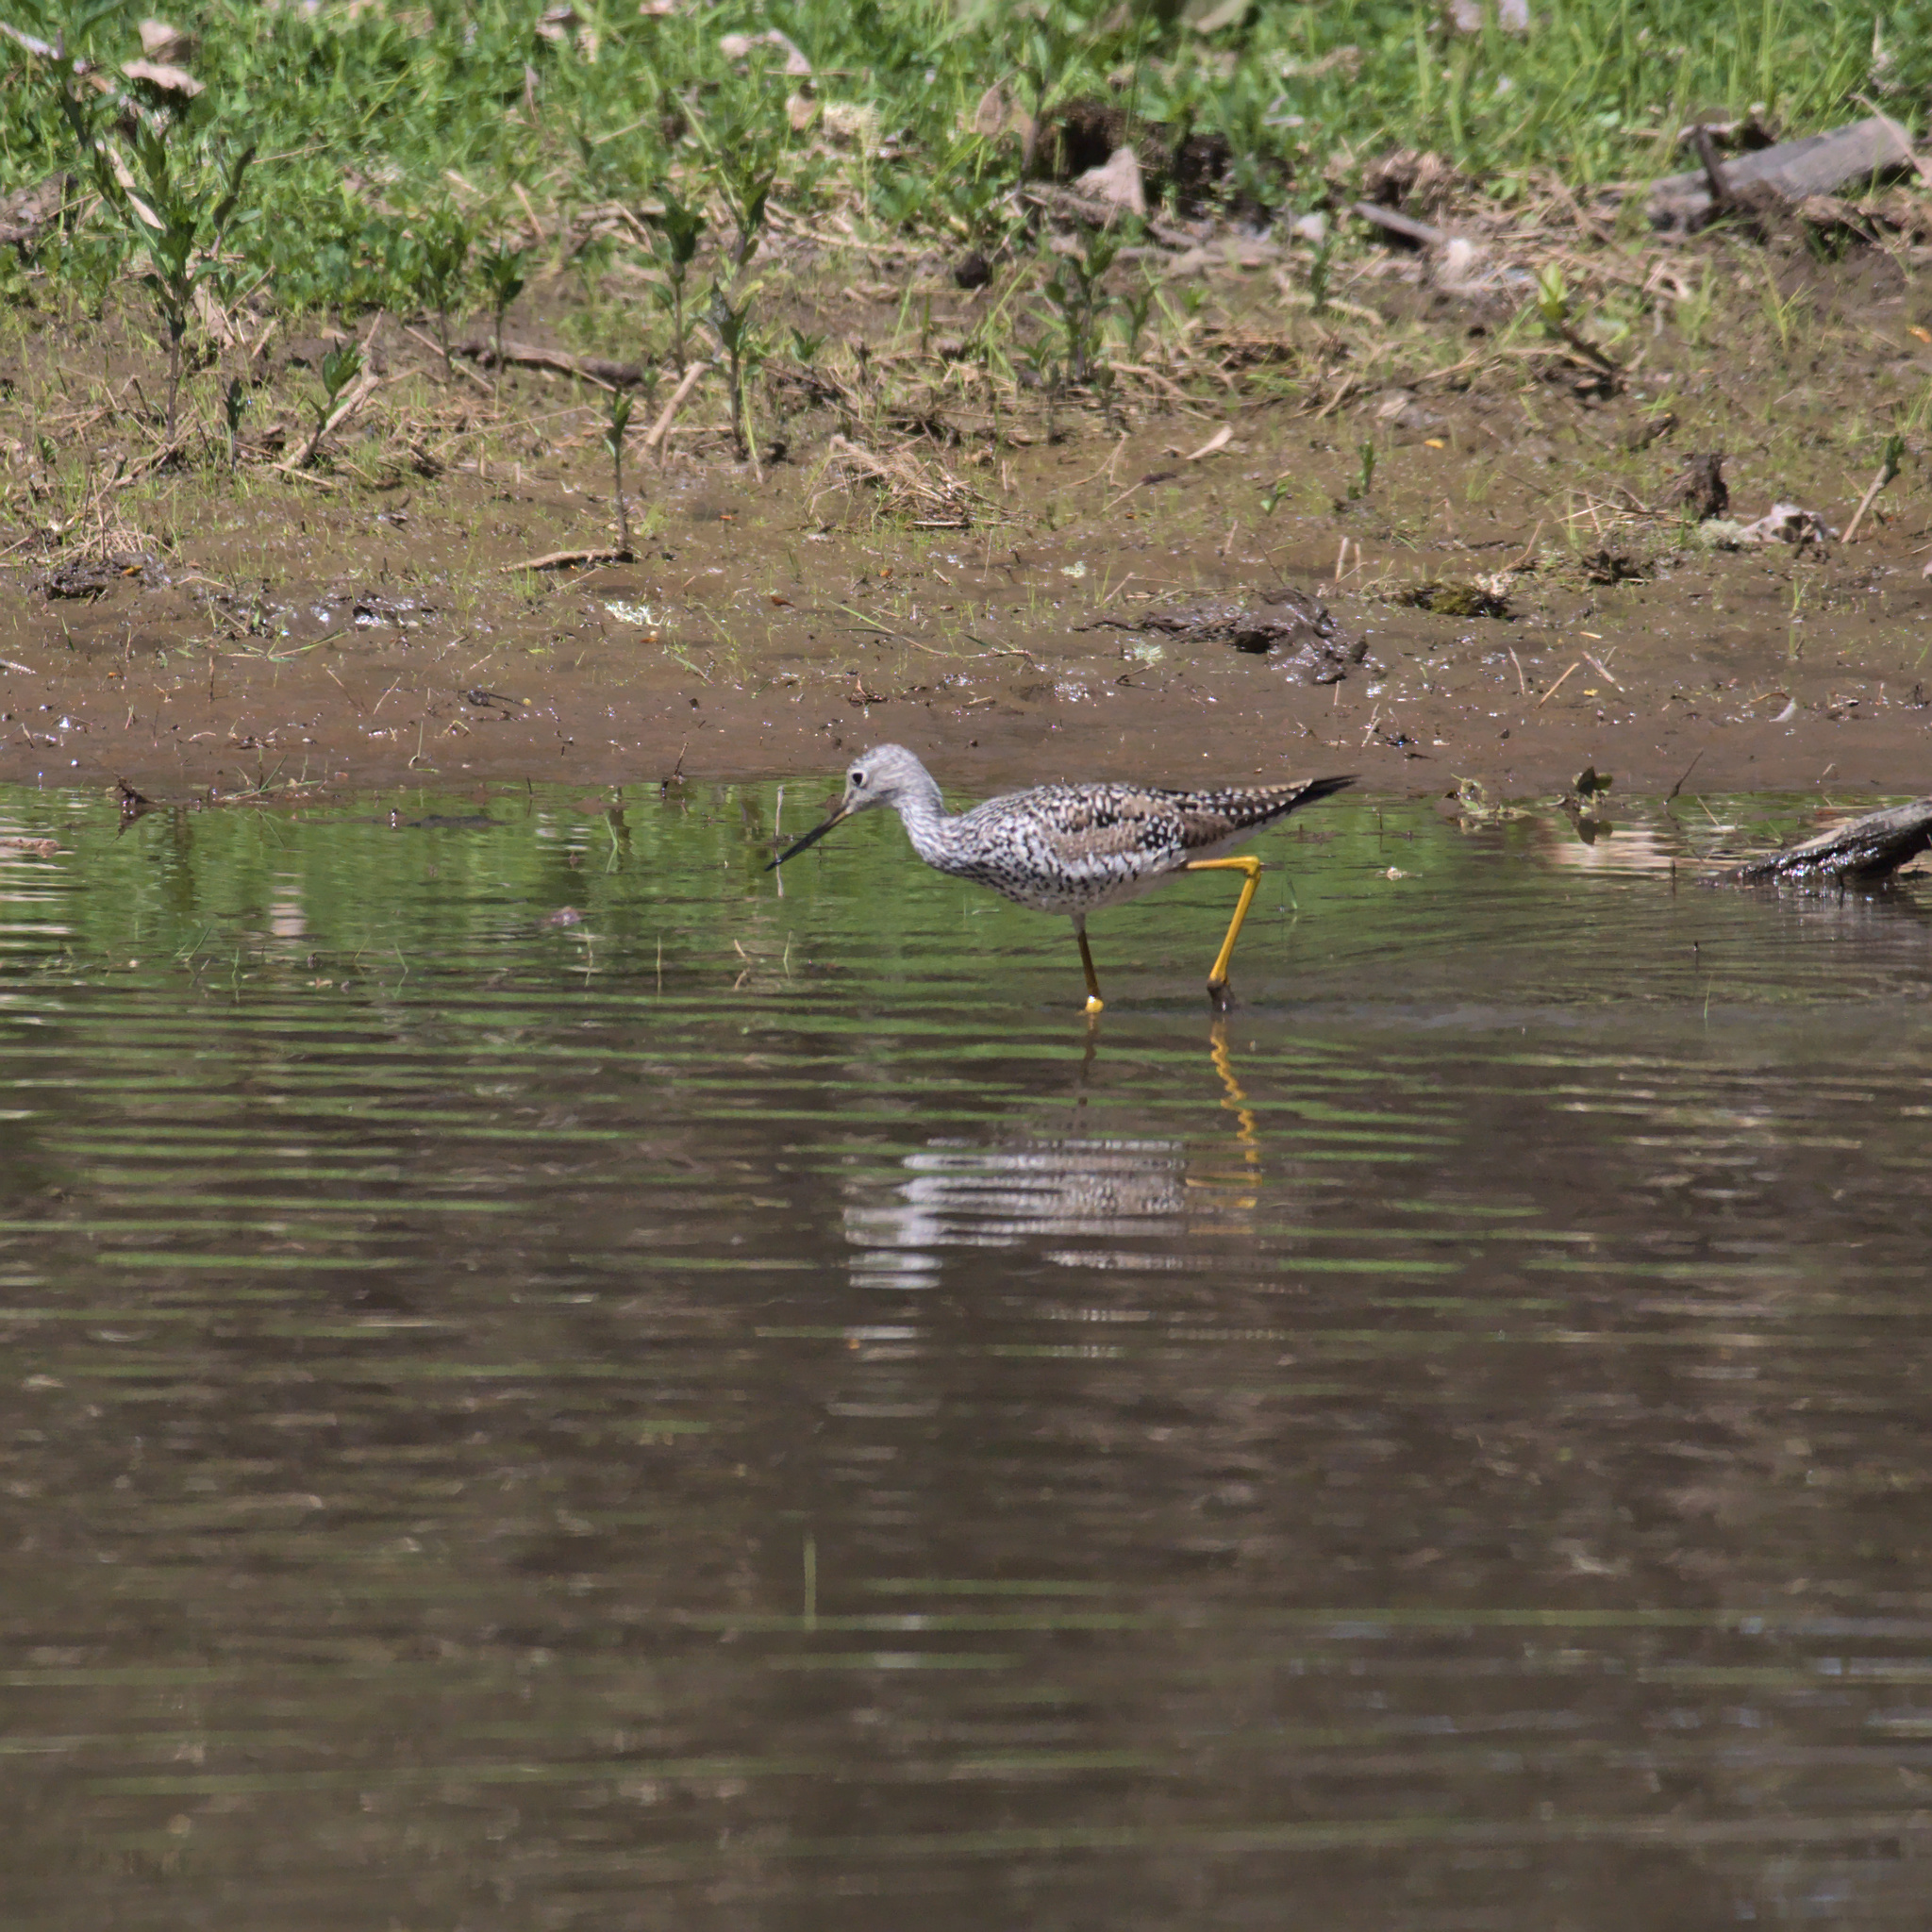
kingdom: Animalia
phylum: Chordata
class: Aves
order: Charadriiformes
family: Scolopacidae
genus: Tringa
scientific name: Tringa melanoleuca
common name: Greater yellowlegs
